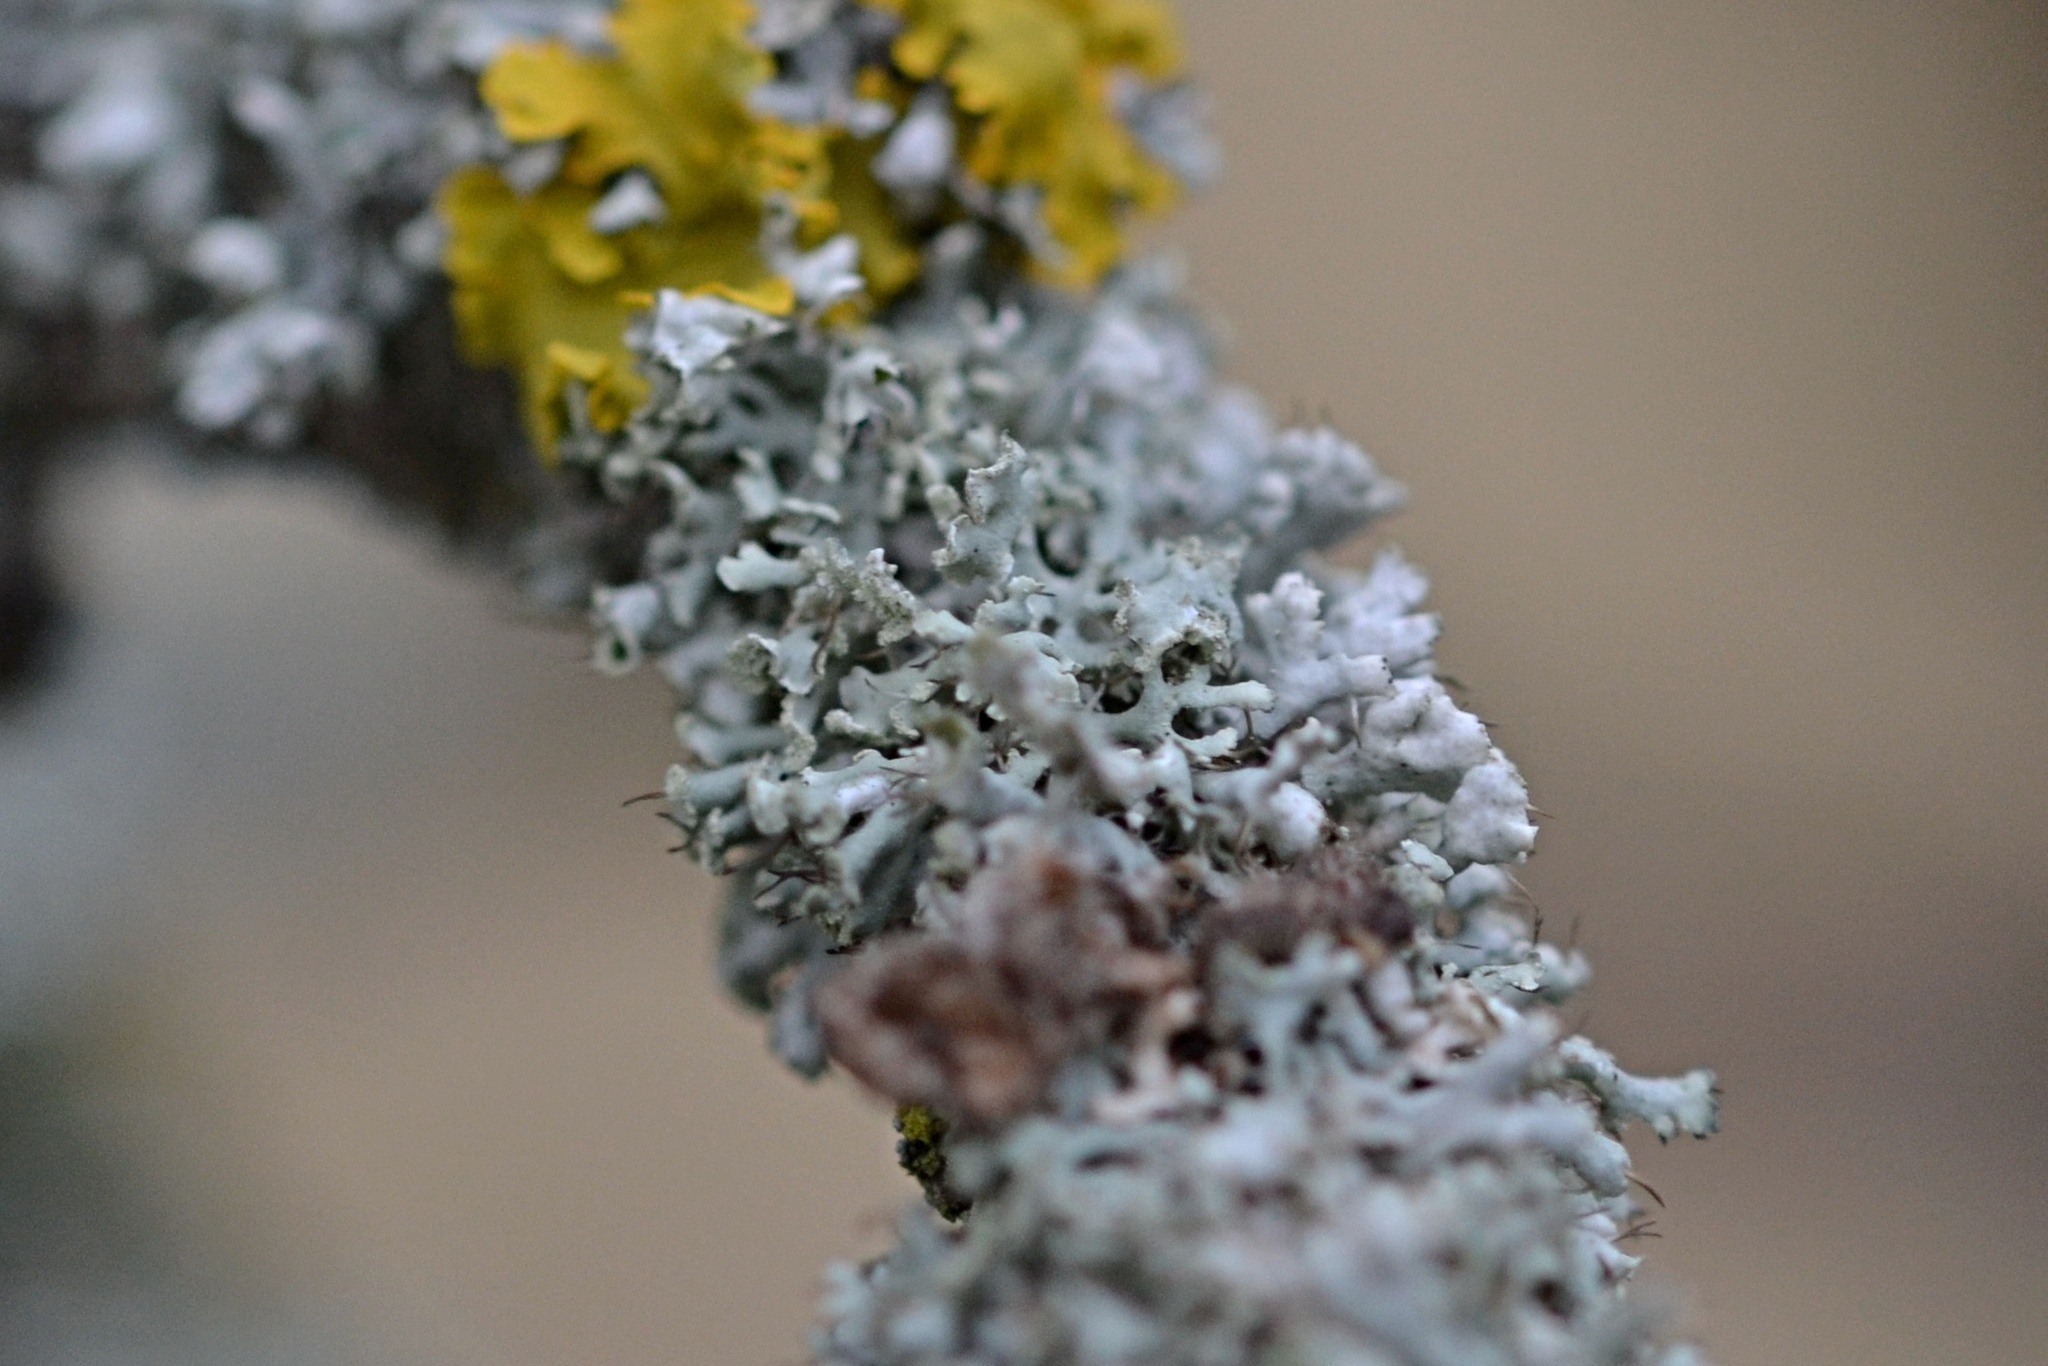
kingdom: Fungi
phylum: Ascomycota
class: Lecanoromycetes
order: Caliciales
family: Physciaceae
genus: Physcia
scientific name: Physcia tenella
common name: Fringed rosette lichen
